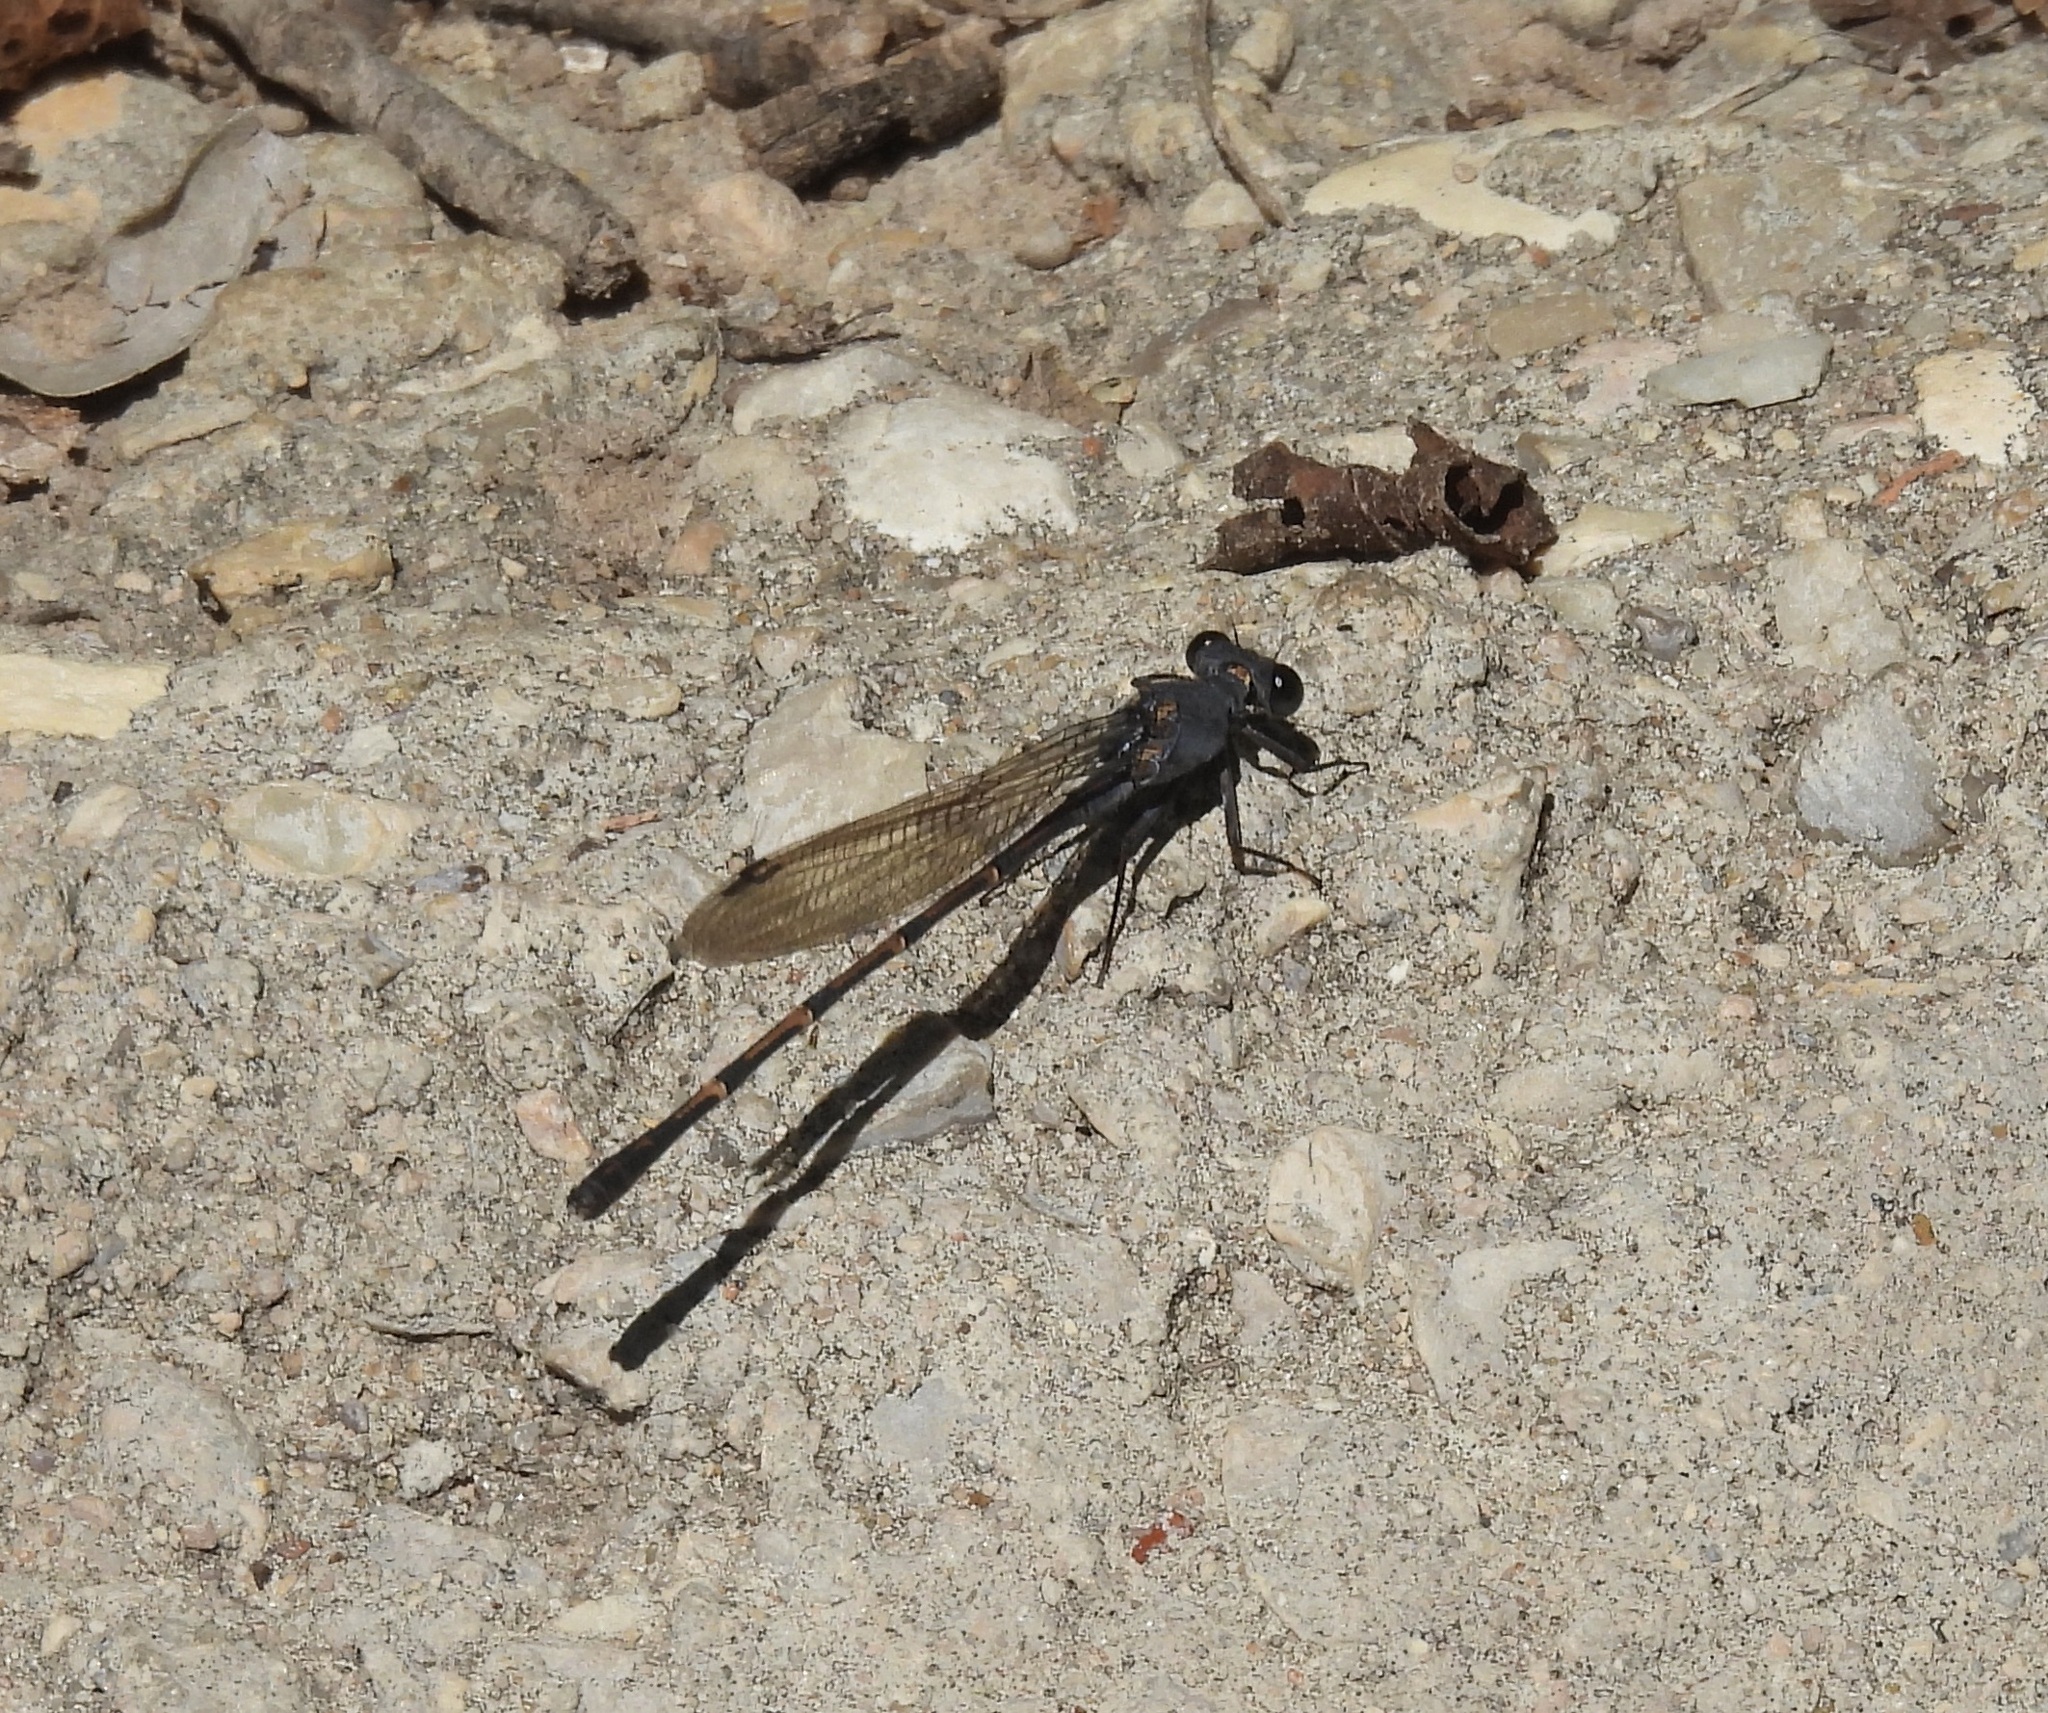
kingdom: Animalia
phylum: Arthropoda
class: Insecta
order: Odonata
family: Coenagrionidae
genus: Argia
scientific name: Argia lugens
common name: Sooty dancer
